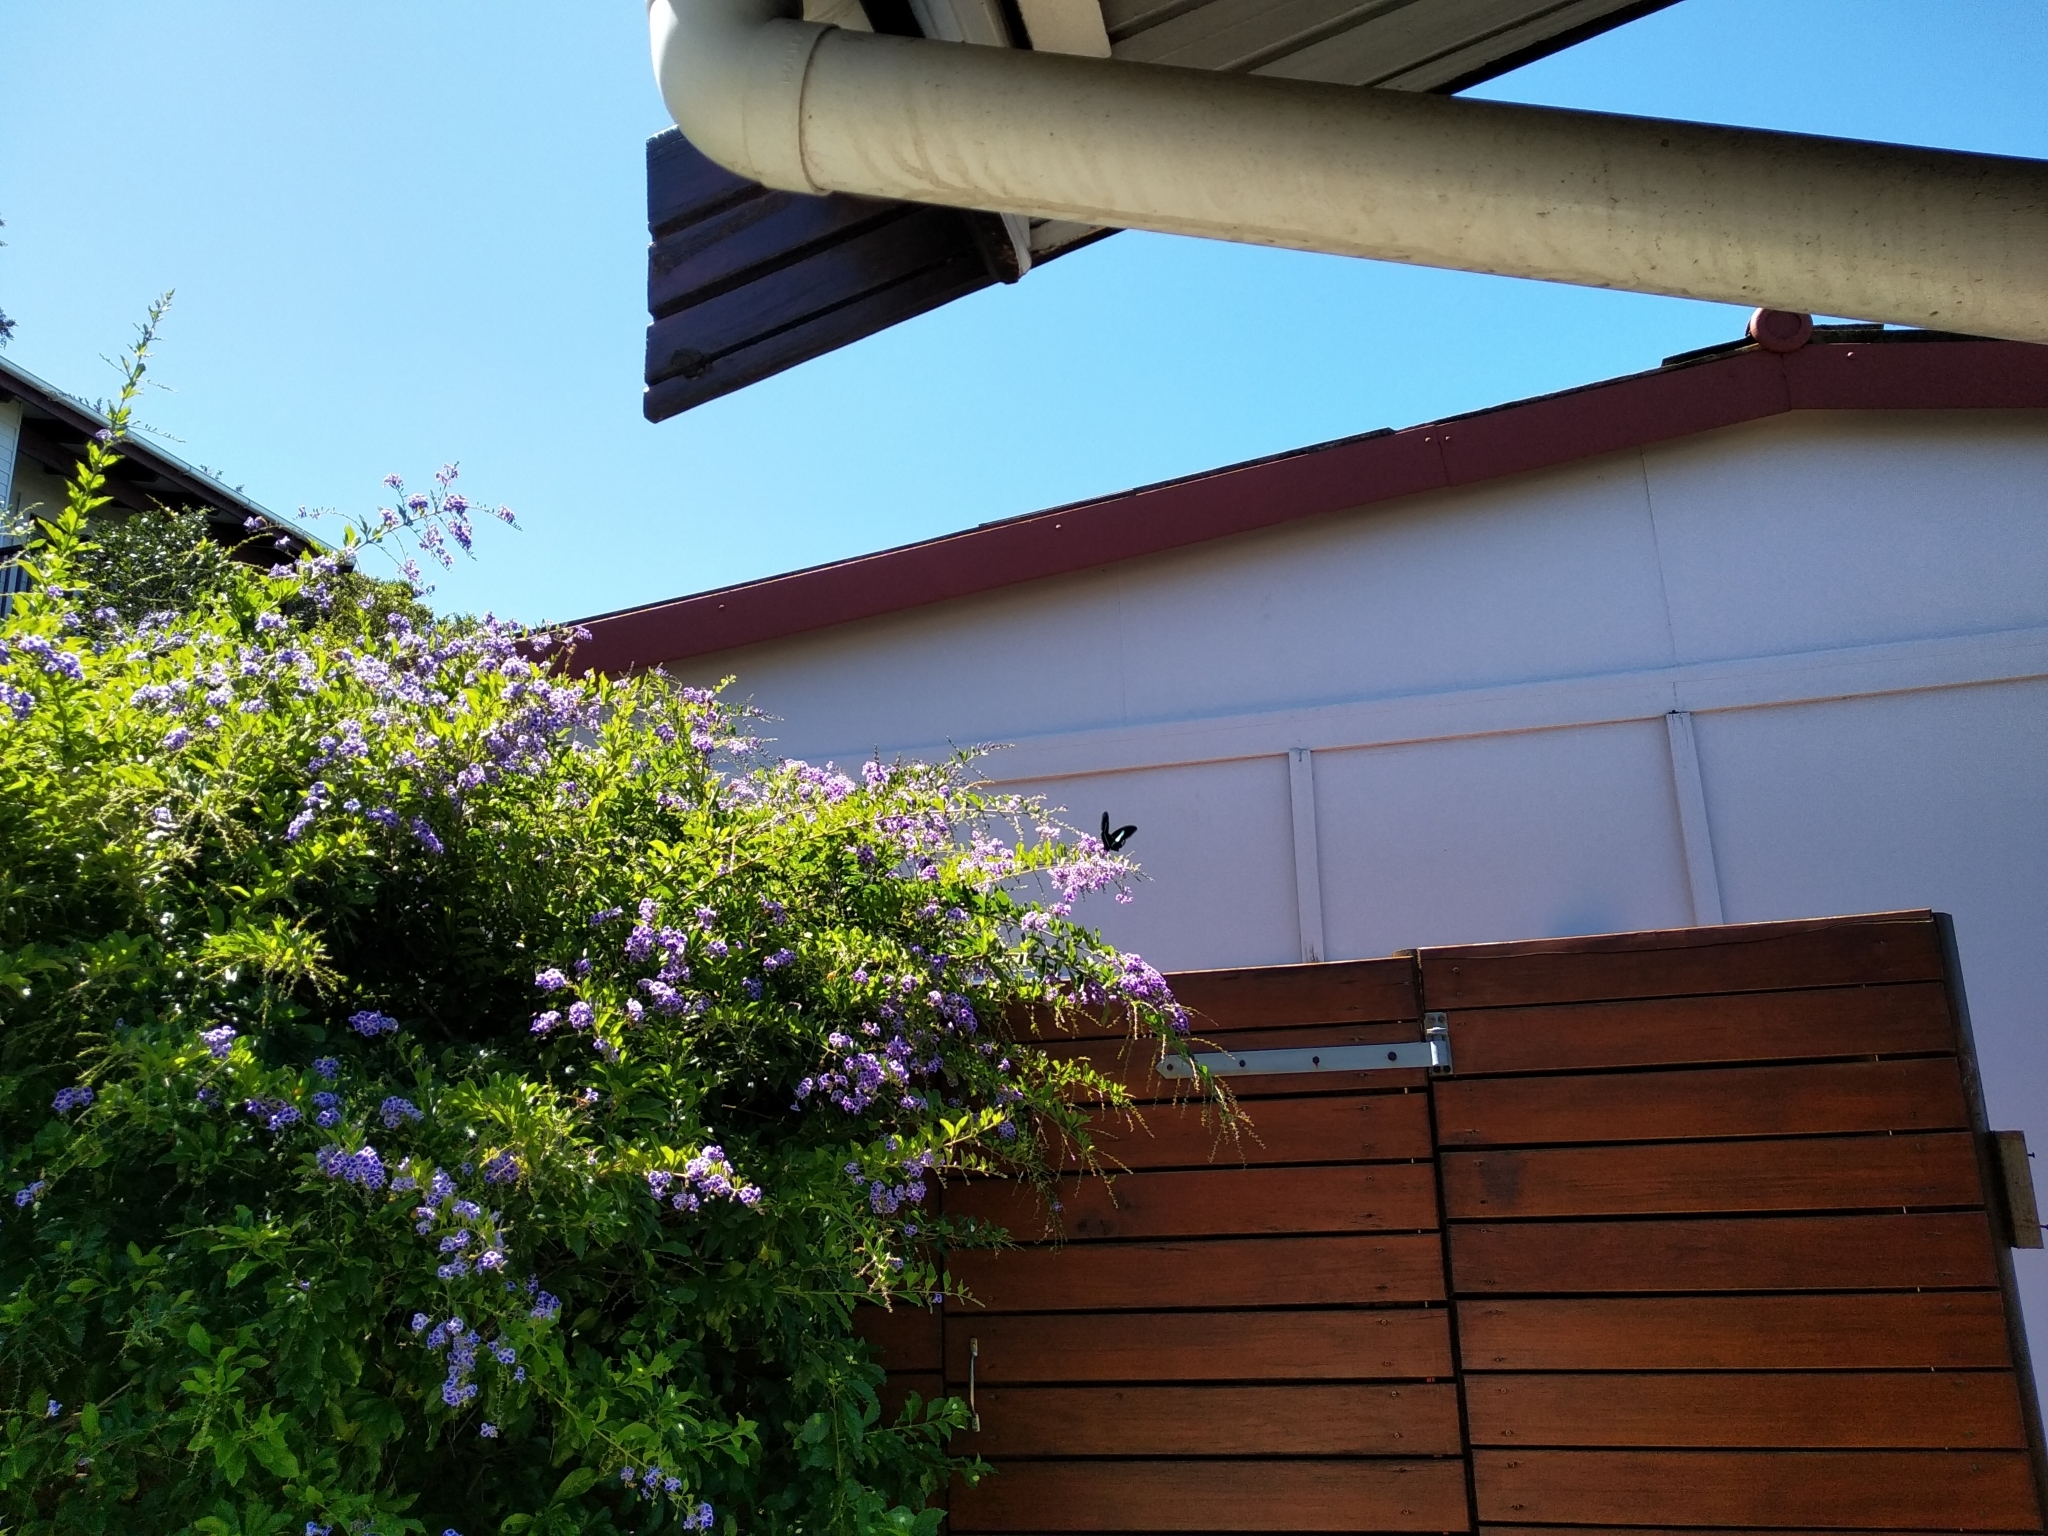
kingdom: Animalia
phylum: Arthropoda
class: Insecta
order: Lepidoptera
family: Papilionidae
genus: Papilio
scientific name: Papilio nireus
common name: Greenbanded swallowtail
